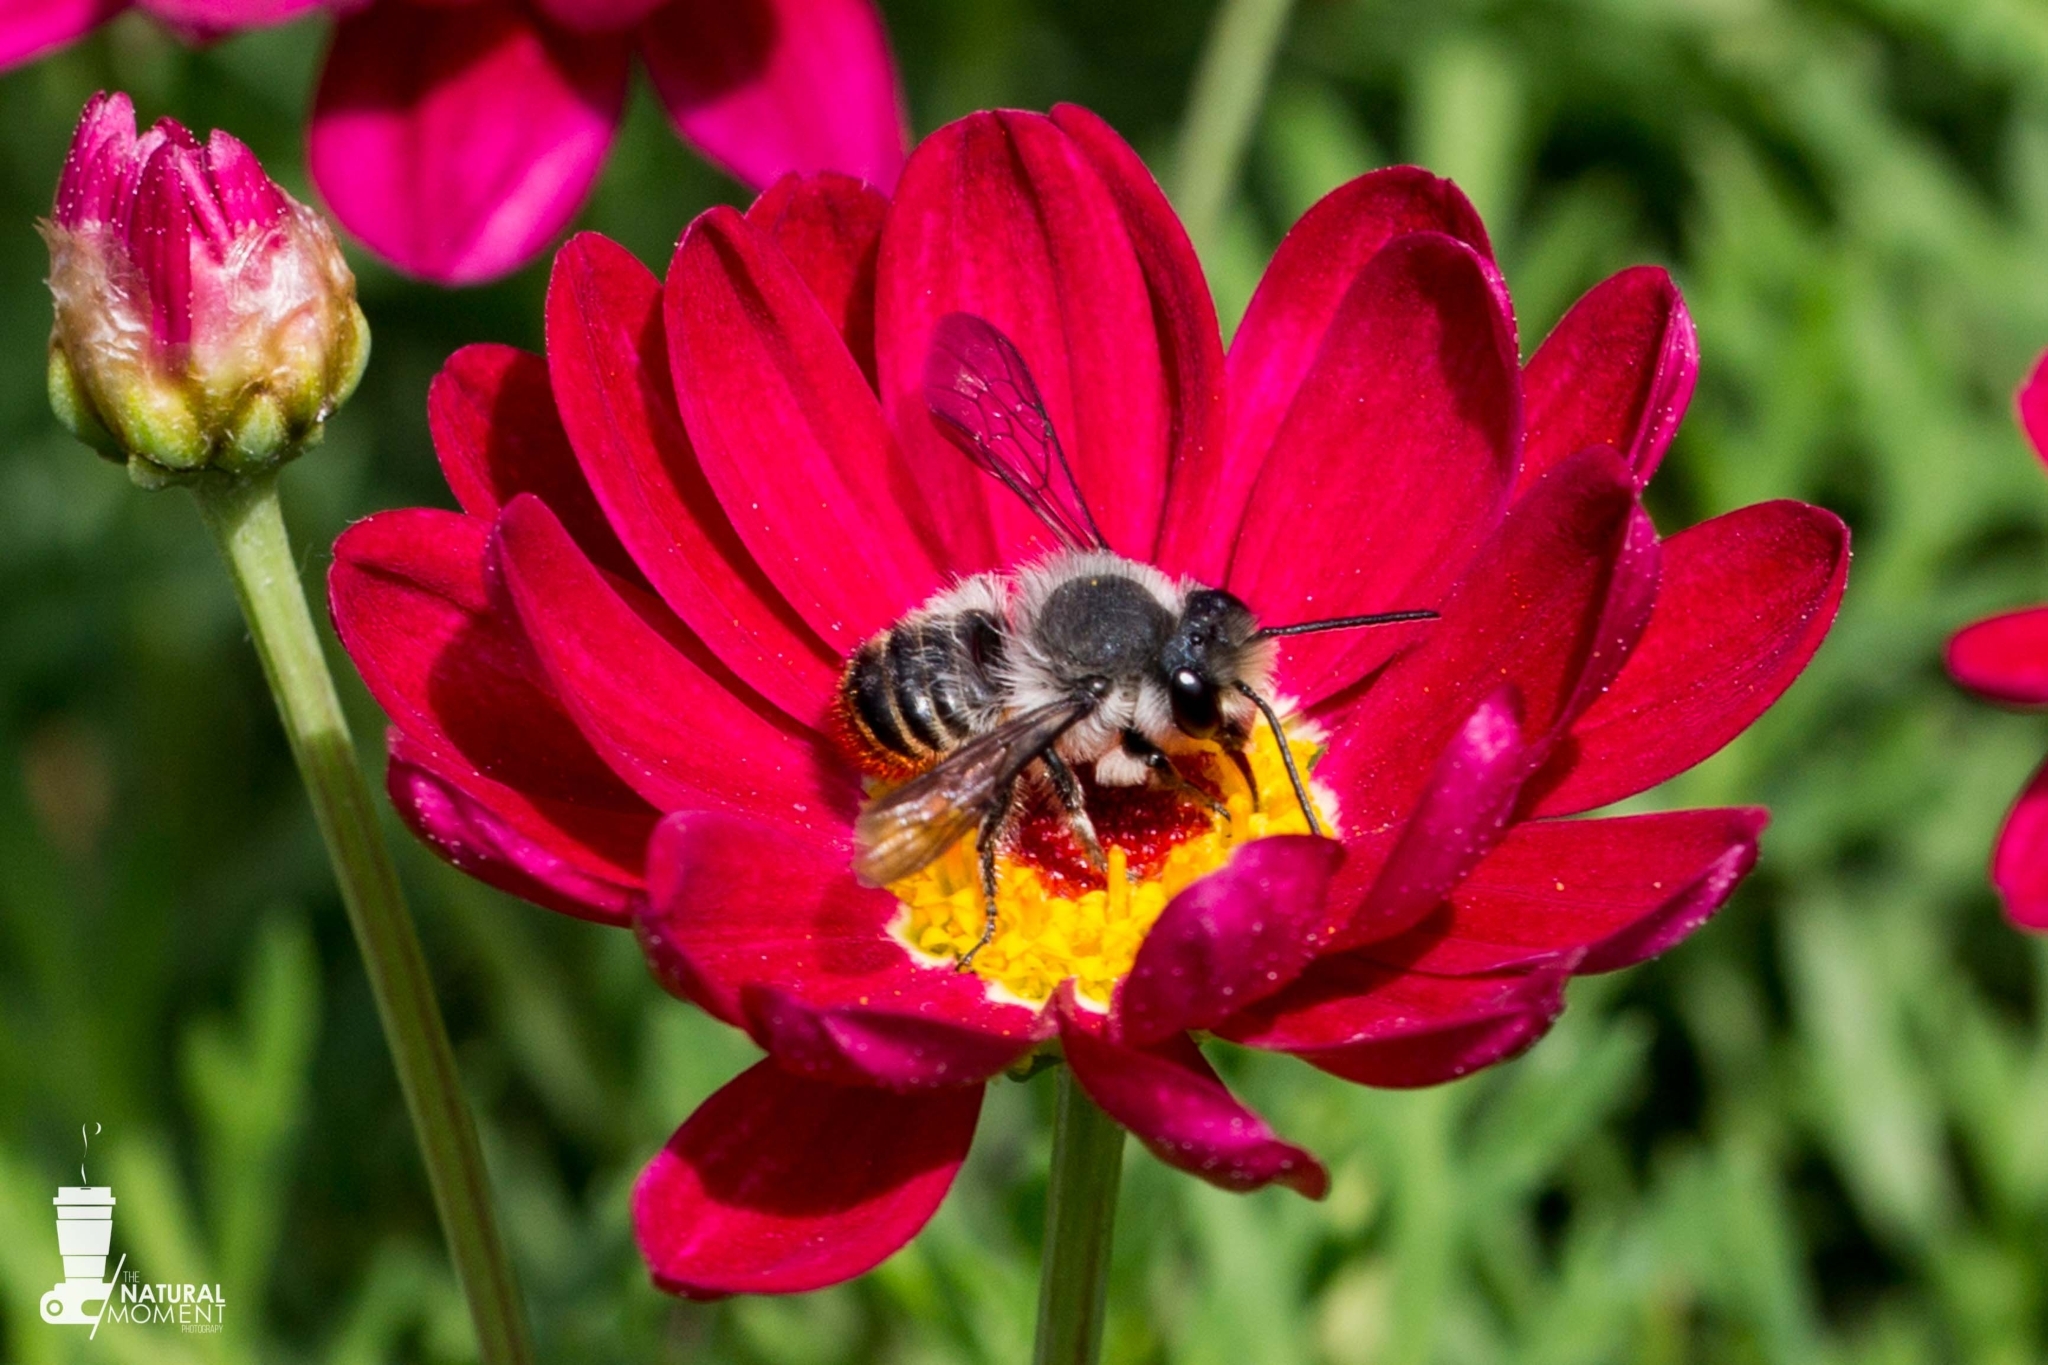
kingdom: Animalia
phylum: Arthropoda
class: Insecta
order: Hymenoptera
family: Megachilidae
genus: Megachile
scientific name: Megachile ecuadoria
